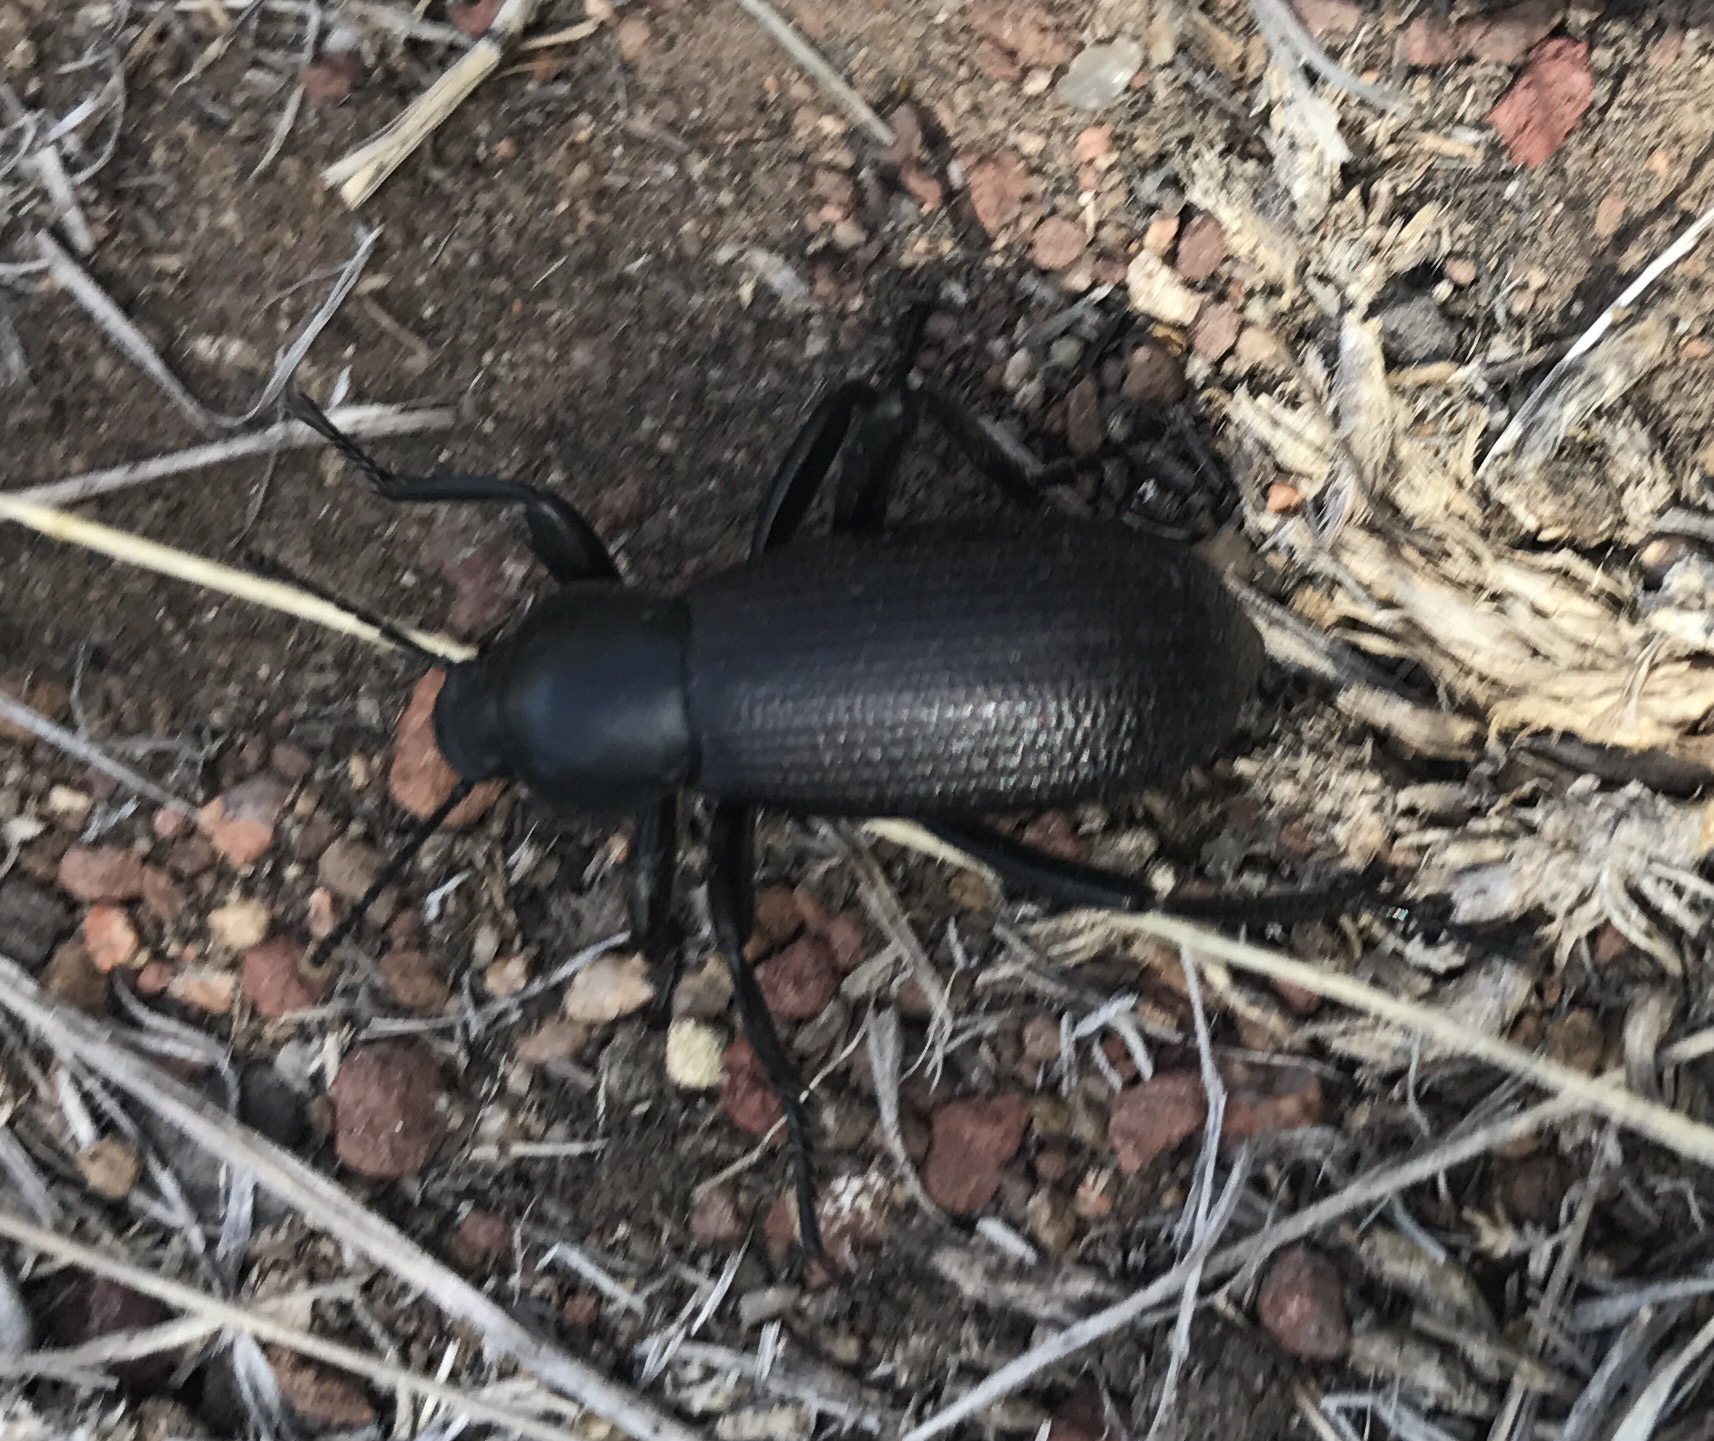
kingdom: Animalia
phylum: Arthropoda
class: Insecta
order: Coleoptera
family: Tenebrionidae
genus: Eleodes
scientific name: Eleodes obscura
